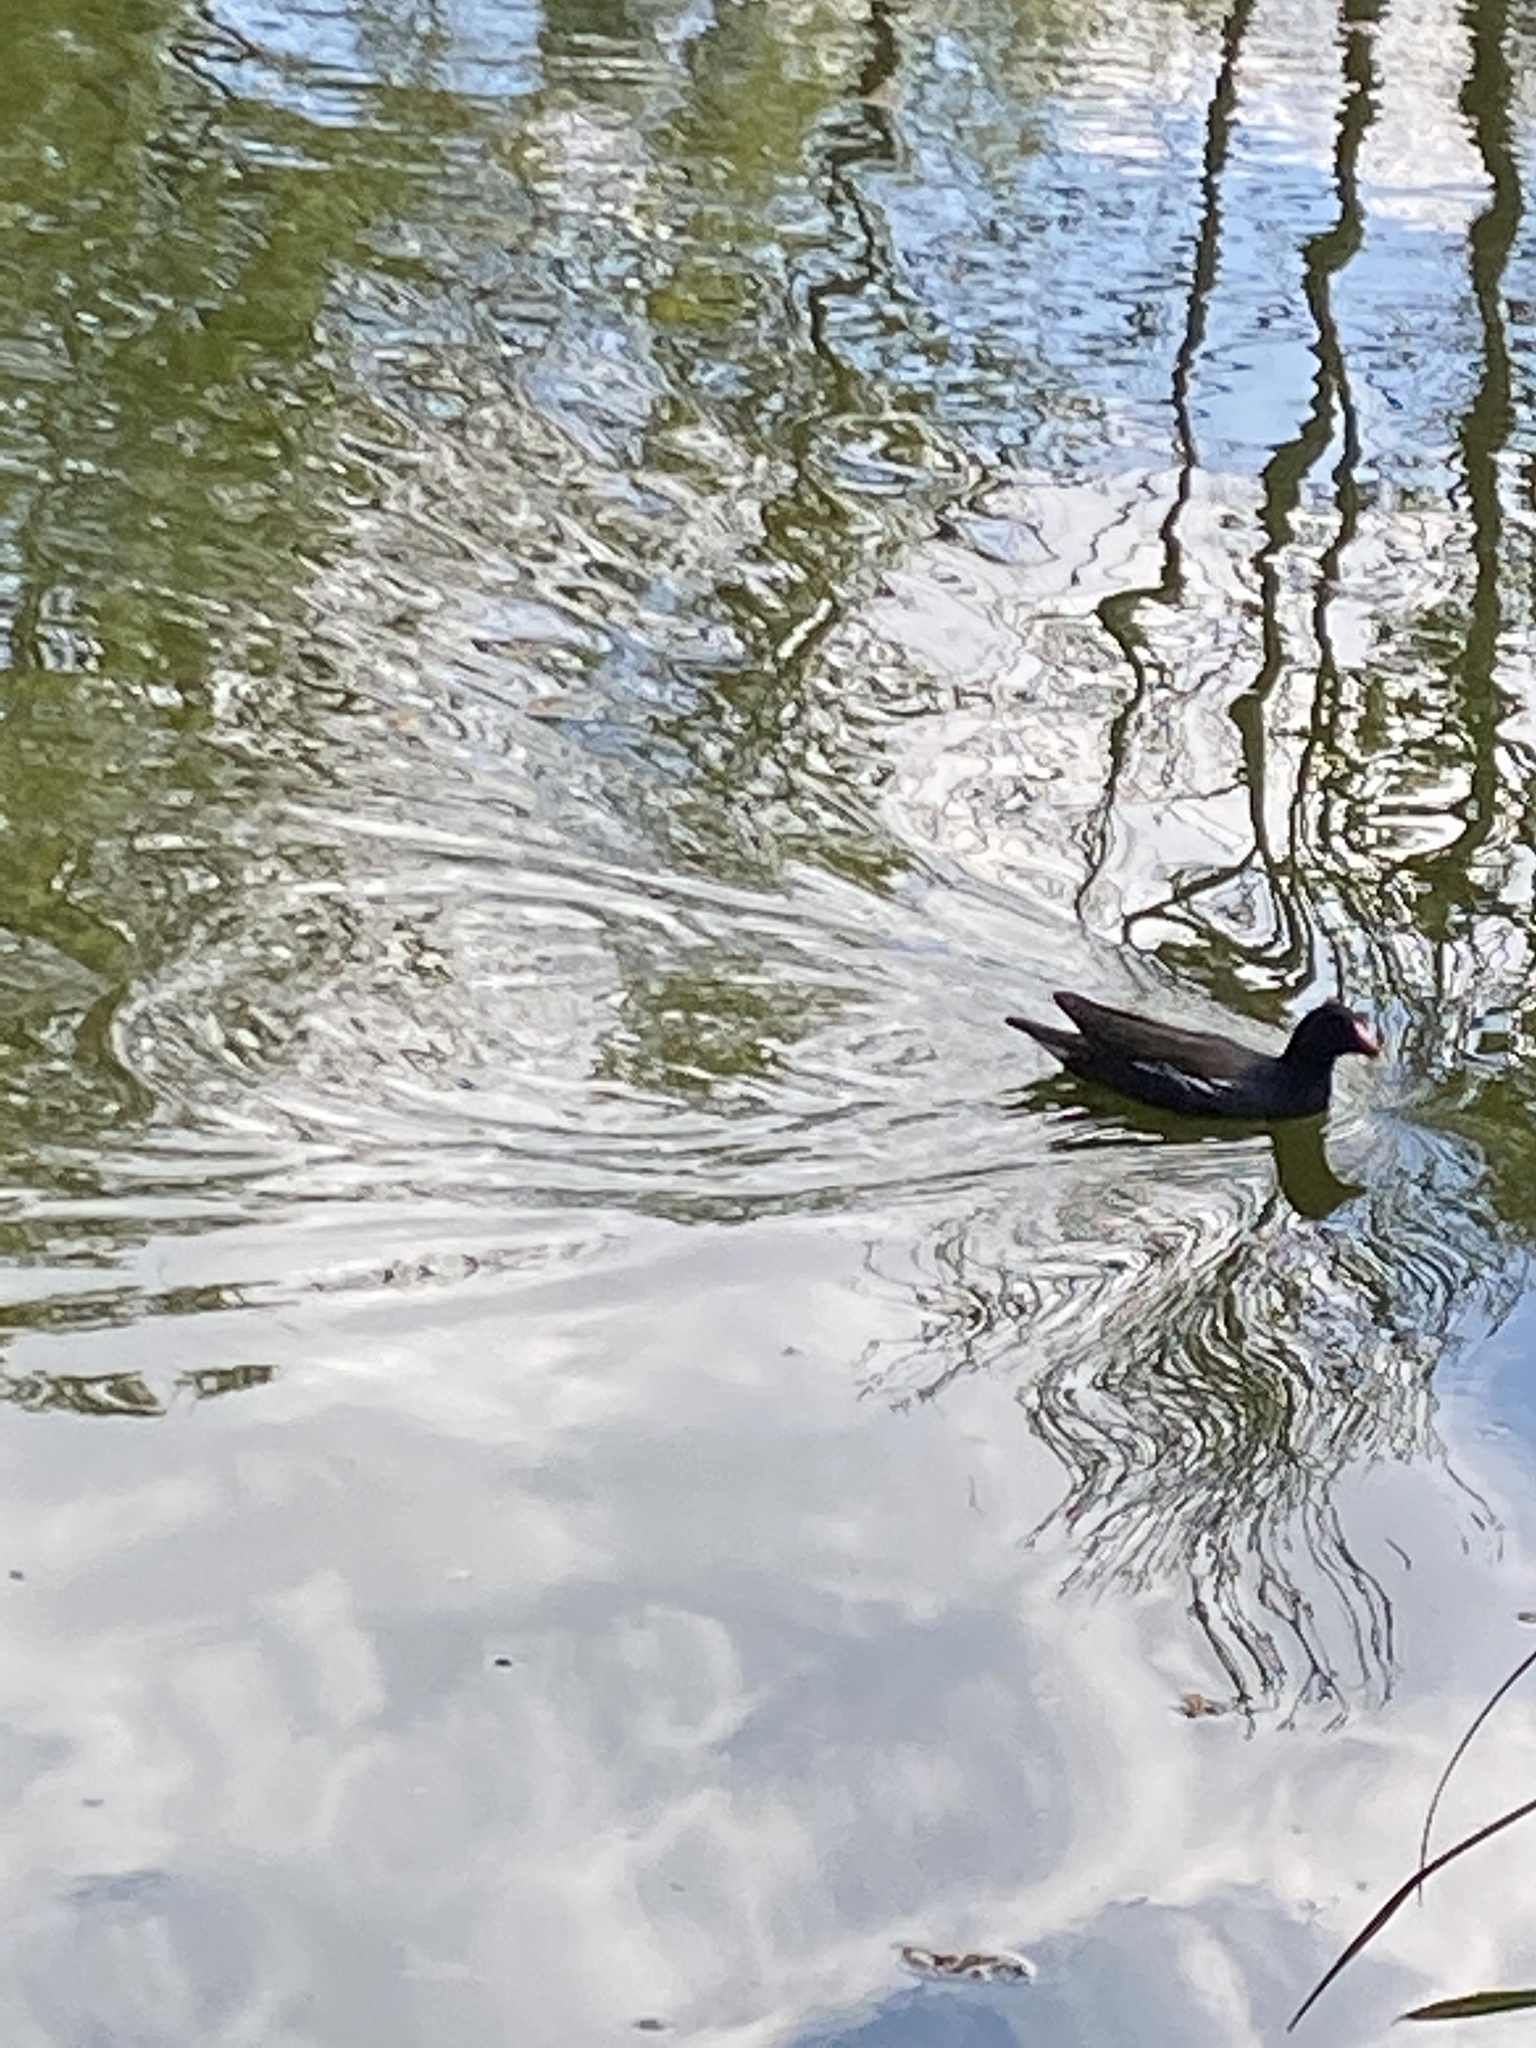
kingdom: Animalia
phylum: Chordata
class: Aves
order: Gruiformes
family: Rallidae
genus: Gallinula
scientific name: Gallinula chloropus
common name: Common moorhen
